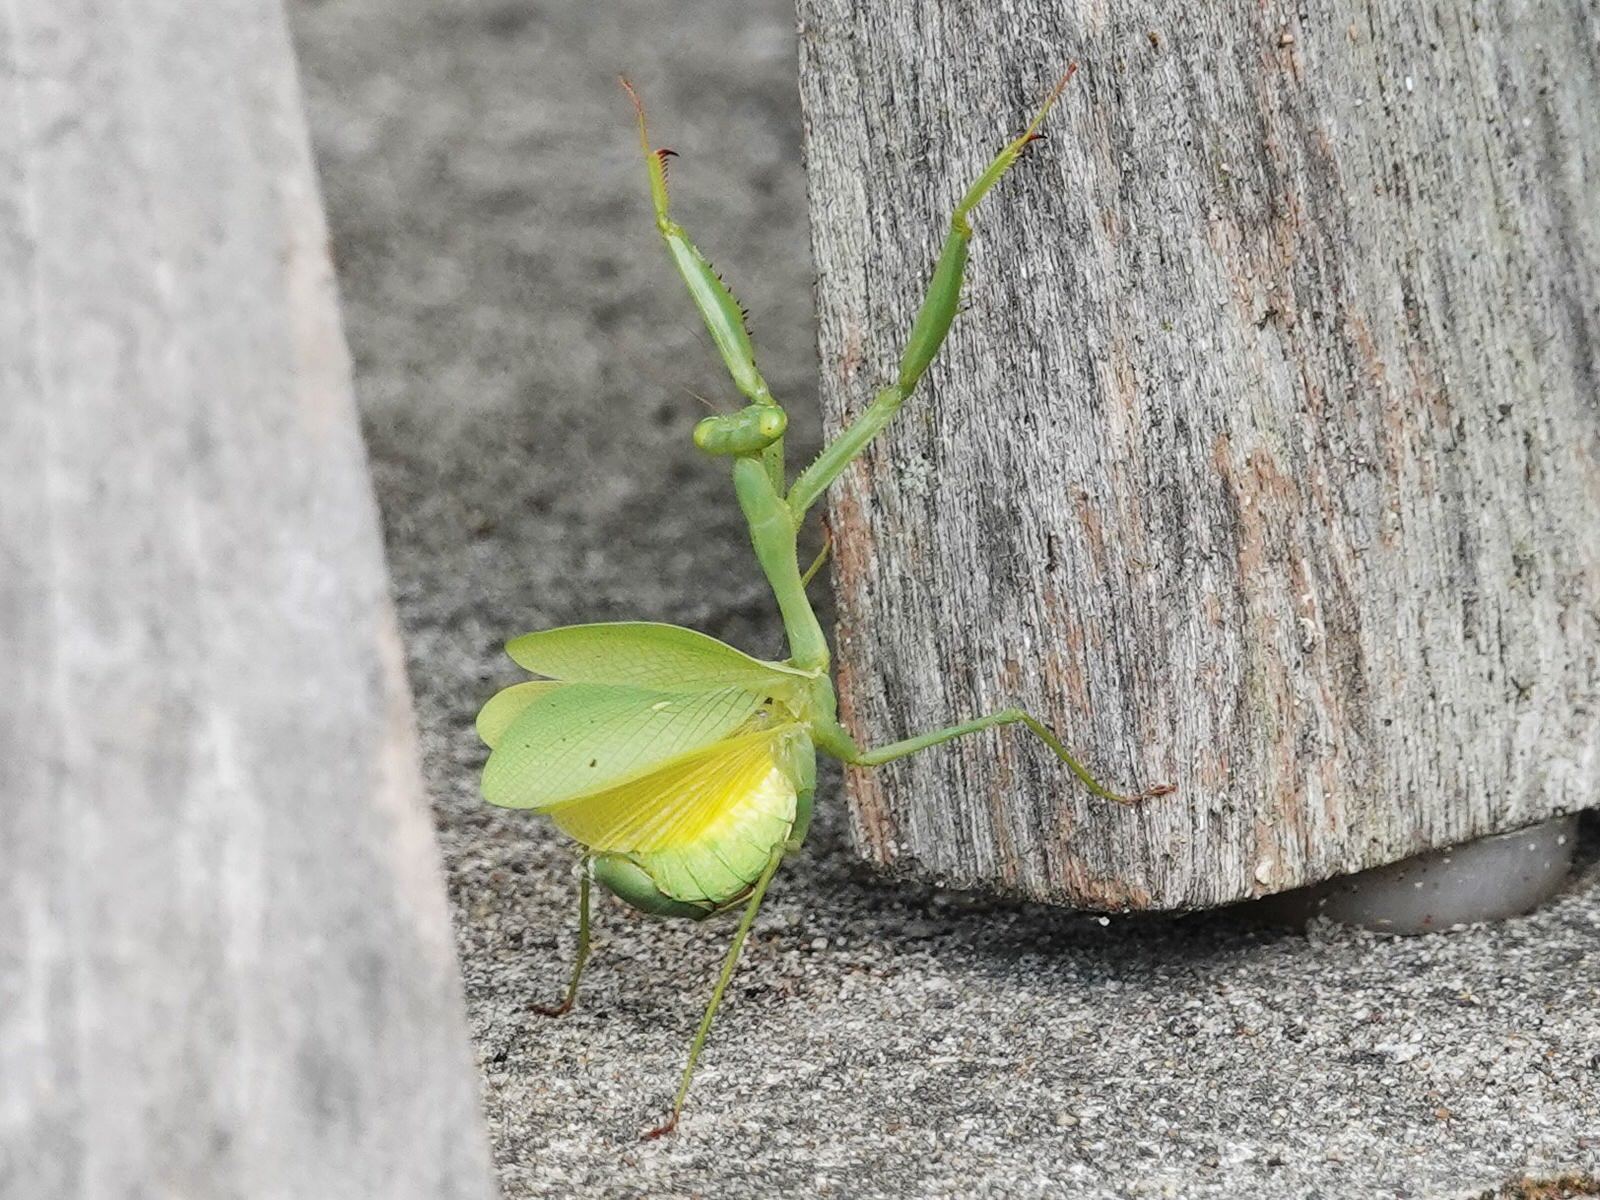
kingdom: Animalia
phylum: Arthropoda
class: Insecta
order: Mantodea
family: Miomantidae
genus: Miomantis
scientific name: Miomantis caffra
